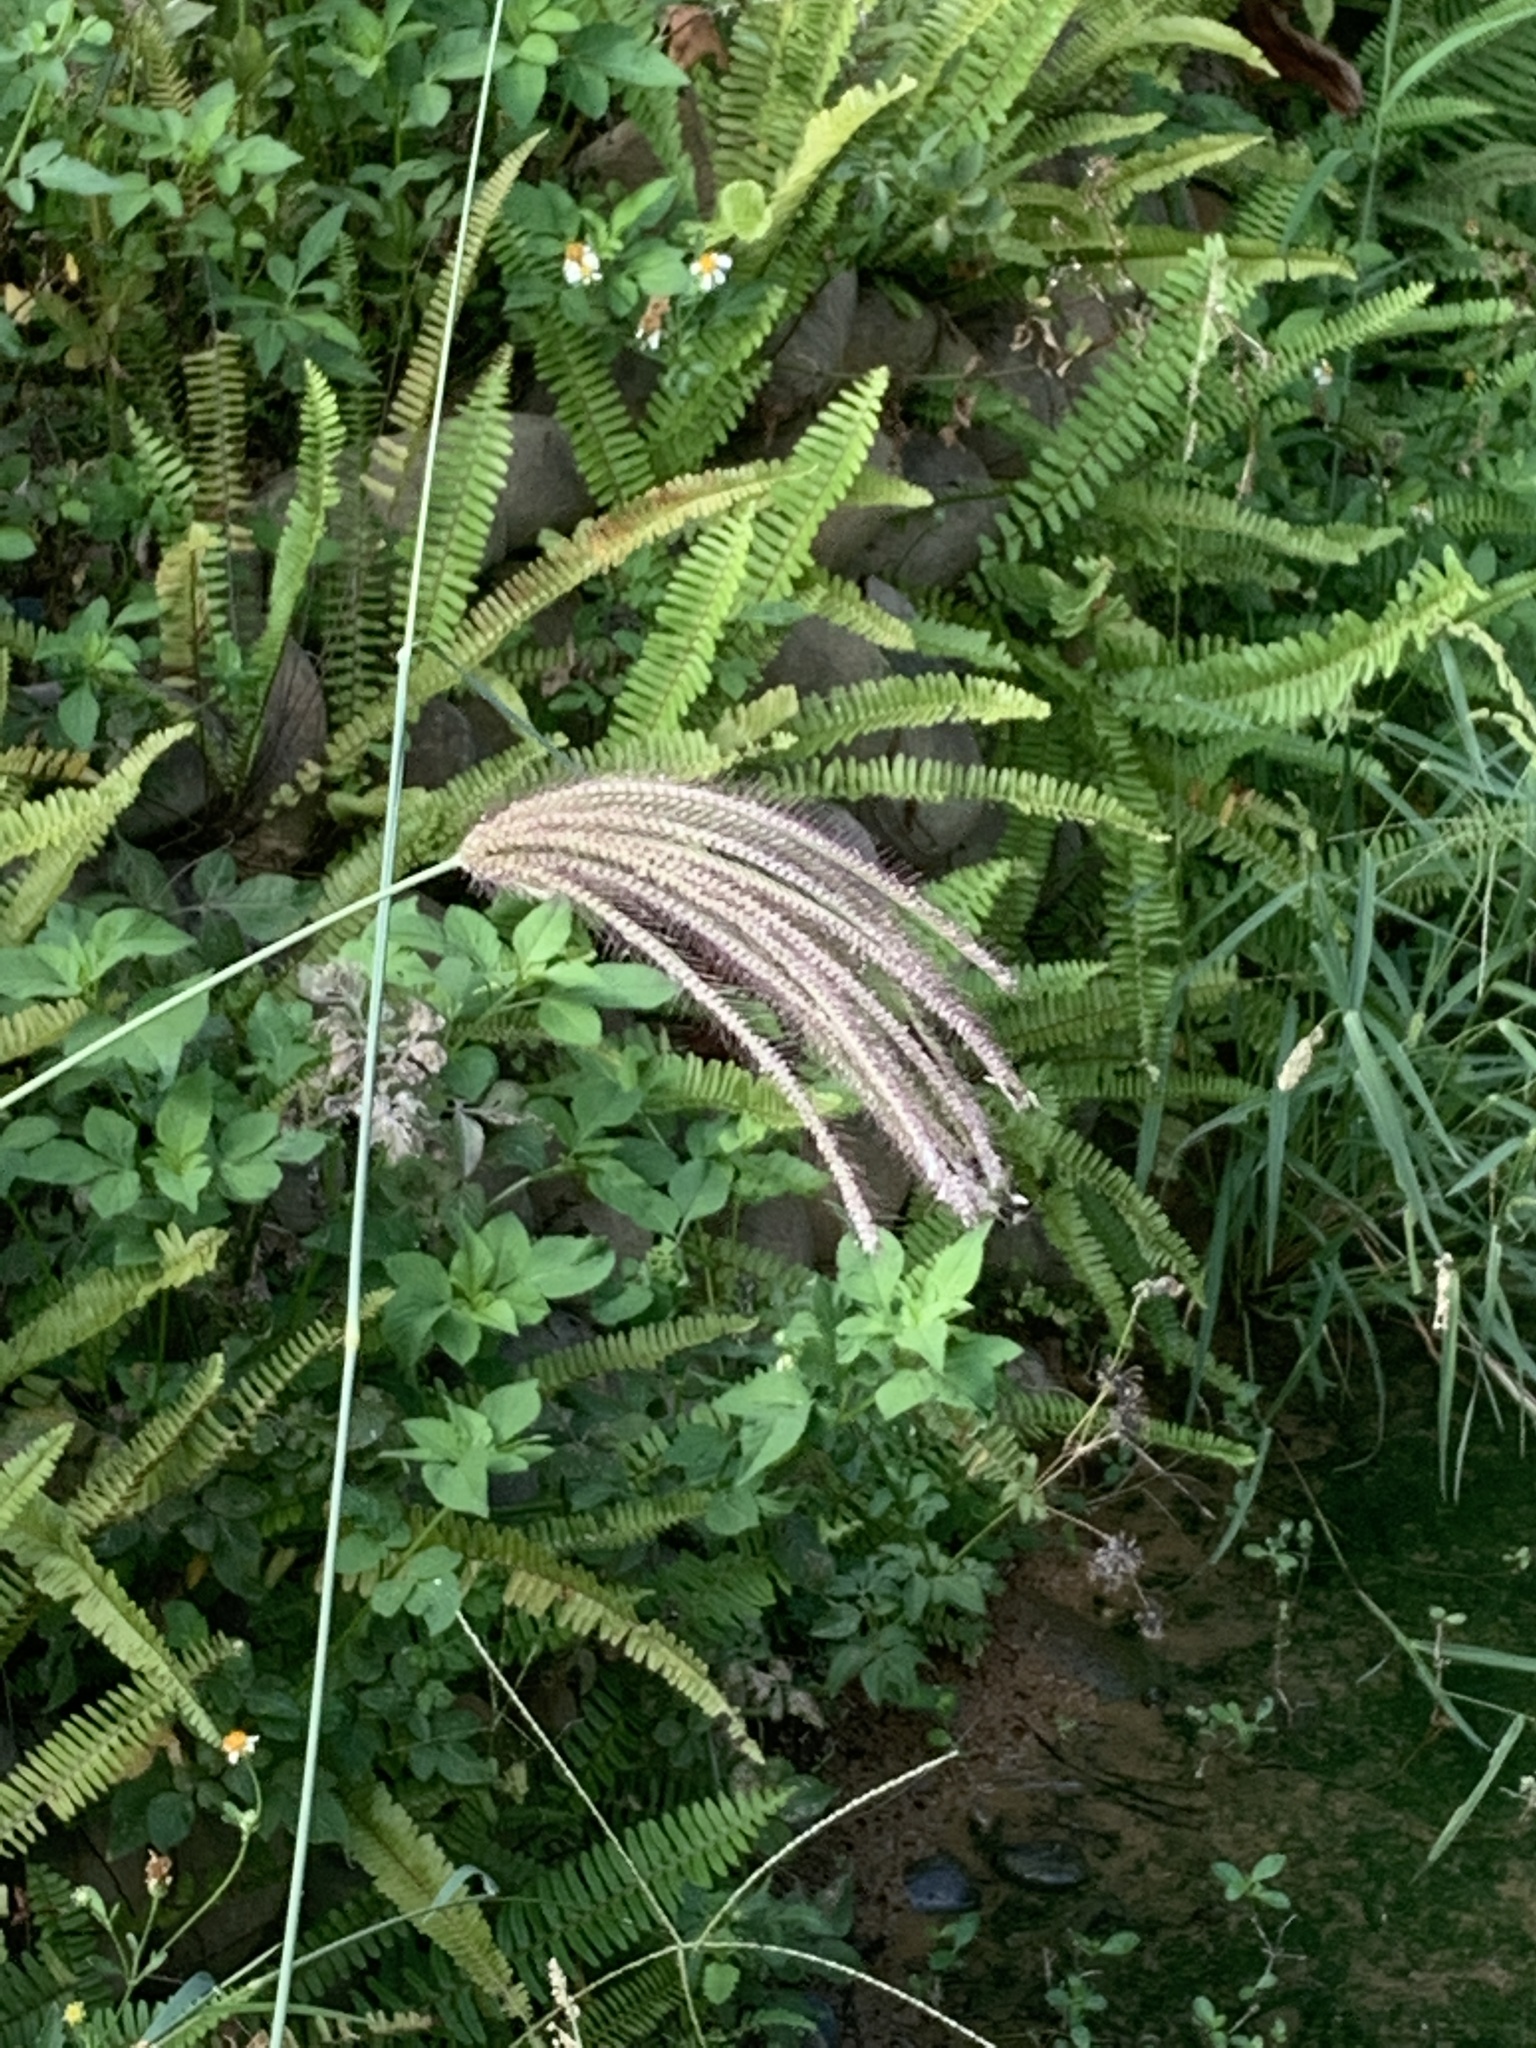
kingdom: Plantae
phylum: Tracheophyta
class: Liliopsida
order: Poales
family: Poaceae
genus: Chloris
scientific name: Chloris barbata
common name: Swollen fingergrass
